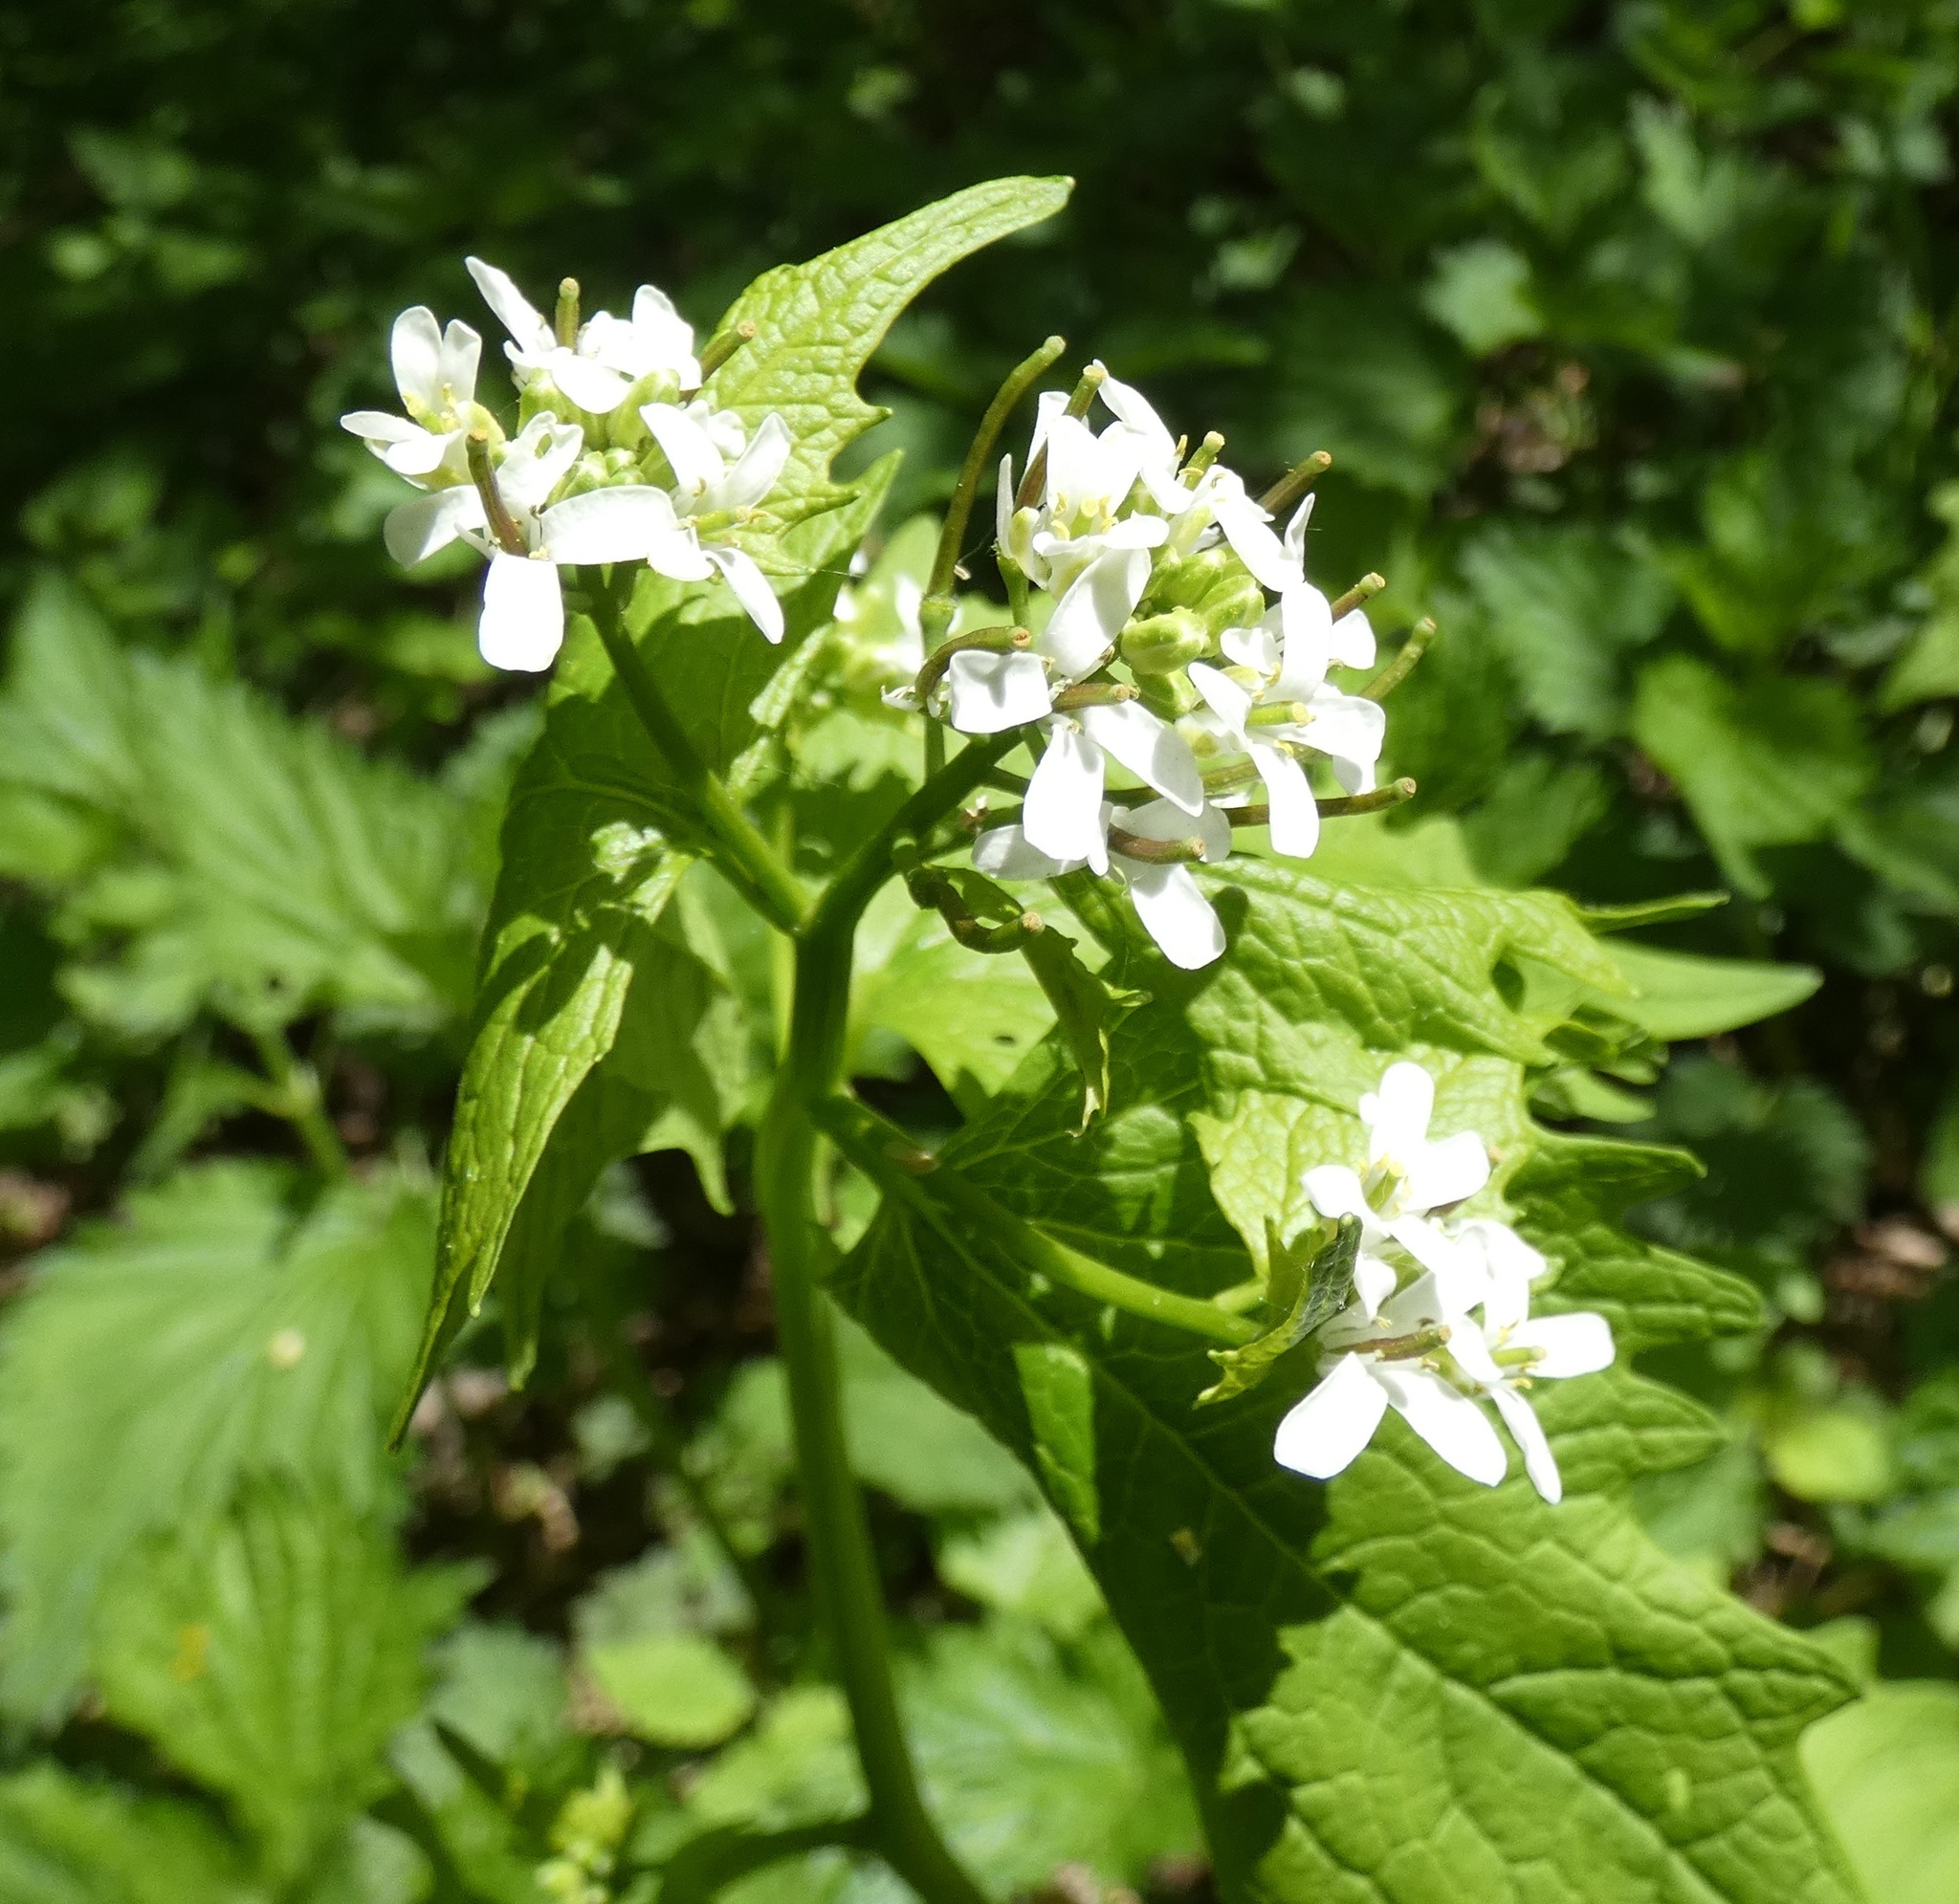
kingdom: Plantae
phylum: Tracheophyta
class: Magnoliopsida
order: Brassicales
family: Brassicaceae
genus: Alliaria
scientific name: Alliaria petiolata
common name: Garlic mustard
